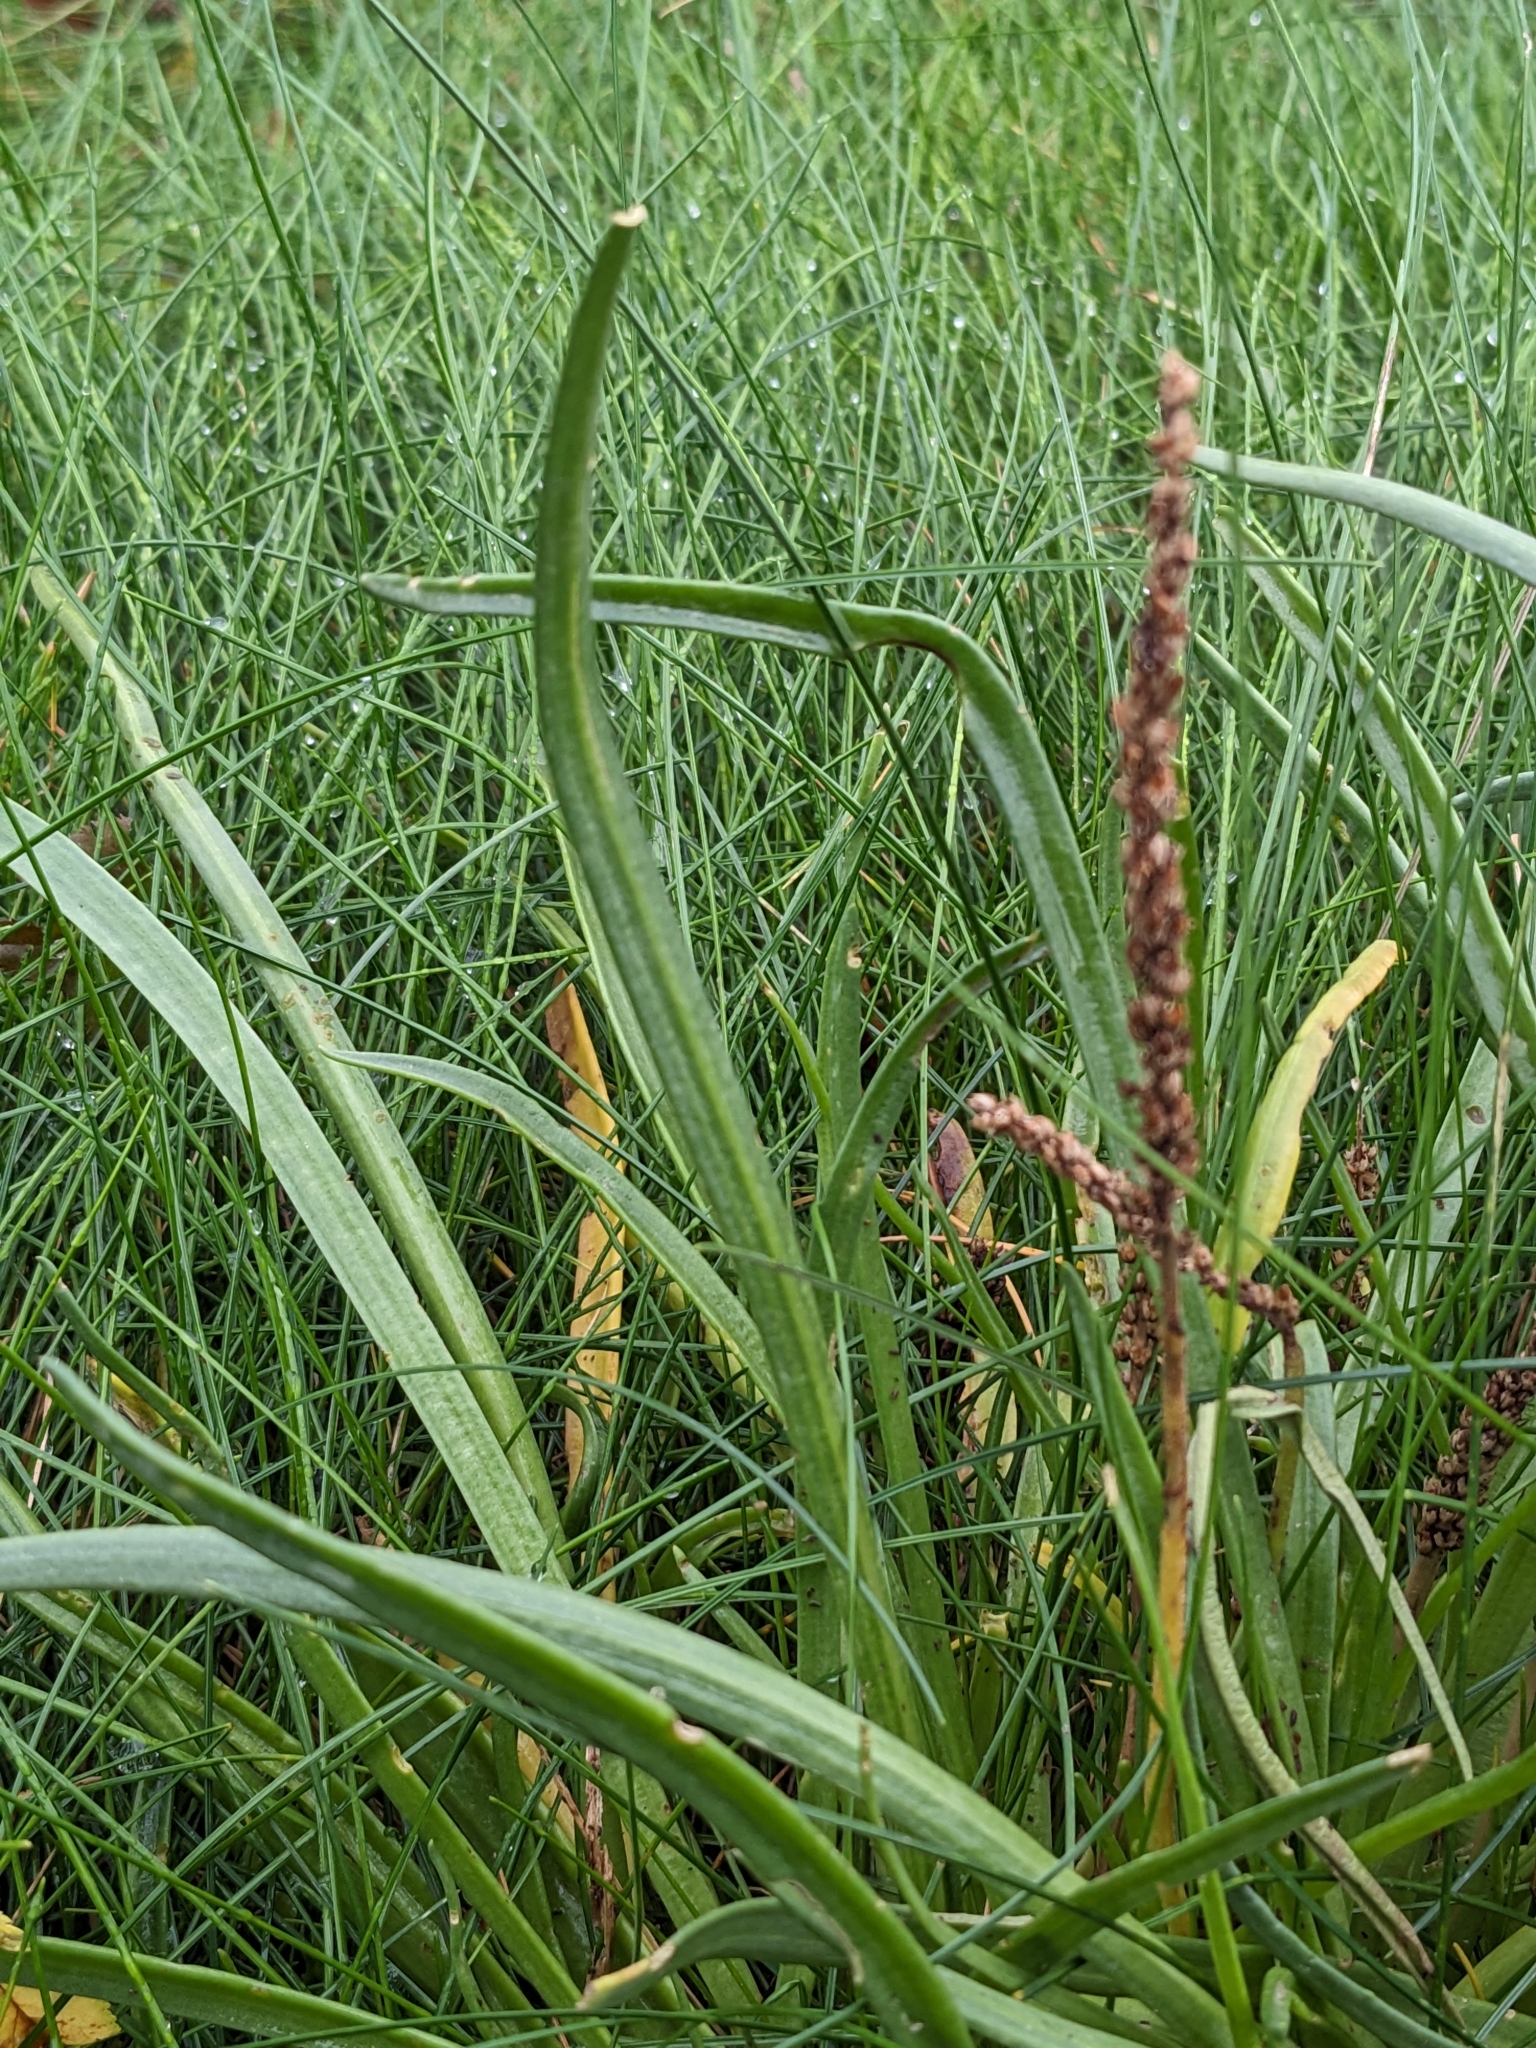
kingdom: Plantae
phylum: Tracheophyta
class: Liliopsida
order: Alismatales
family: Juncaginaceae
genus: Triglochin
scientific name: Triglochin maritima
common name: Sea arrowgrass
